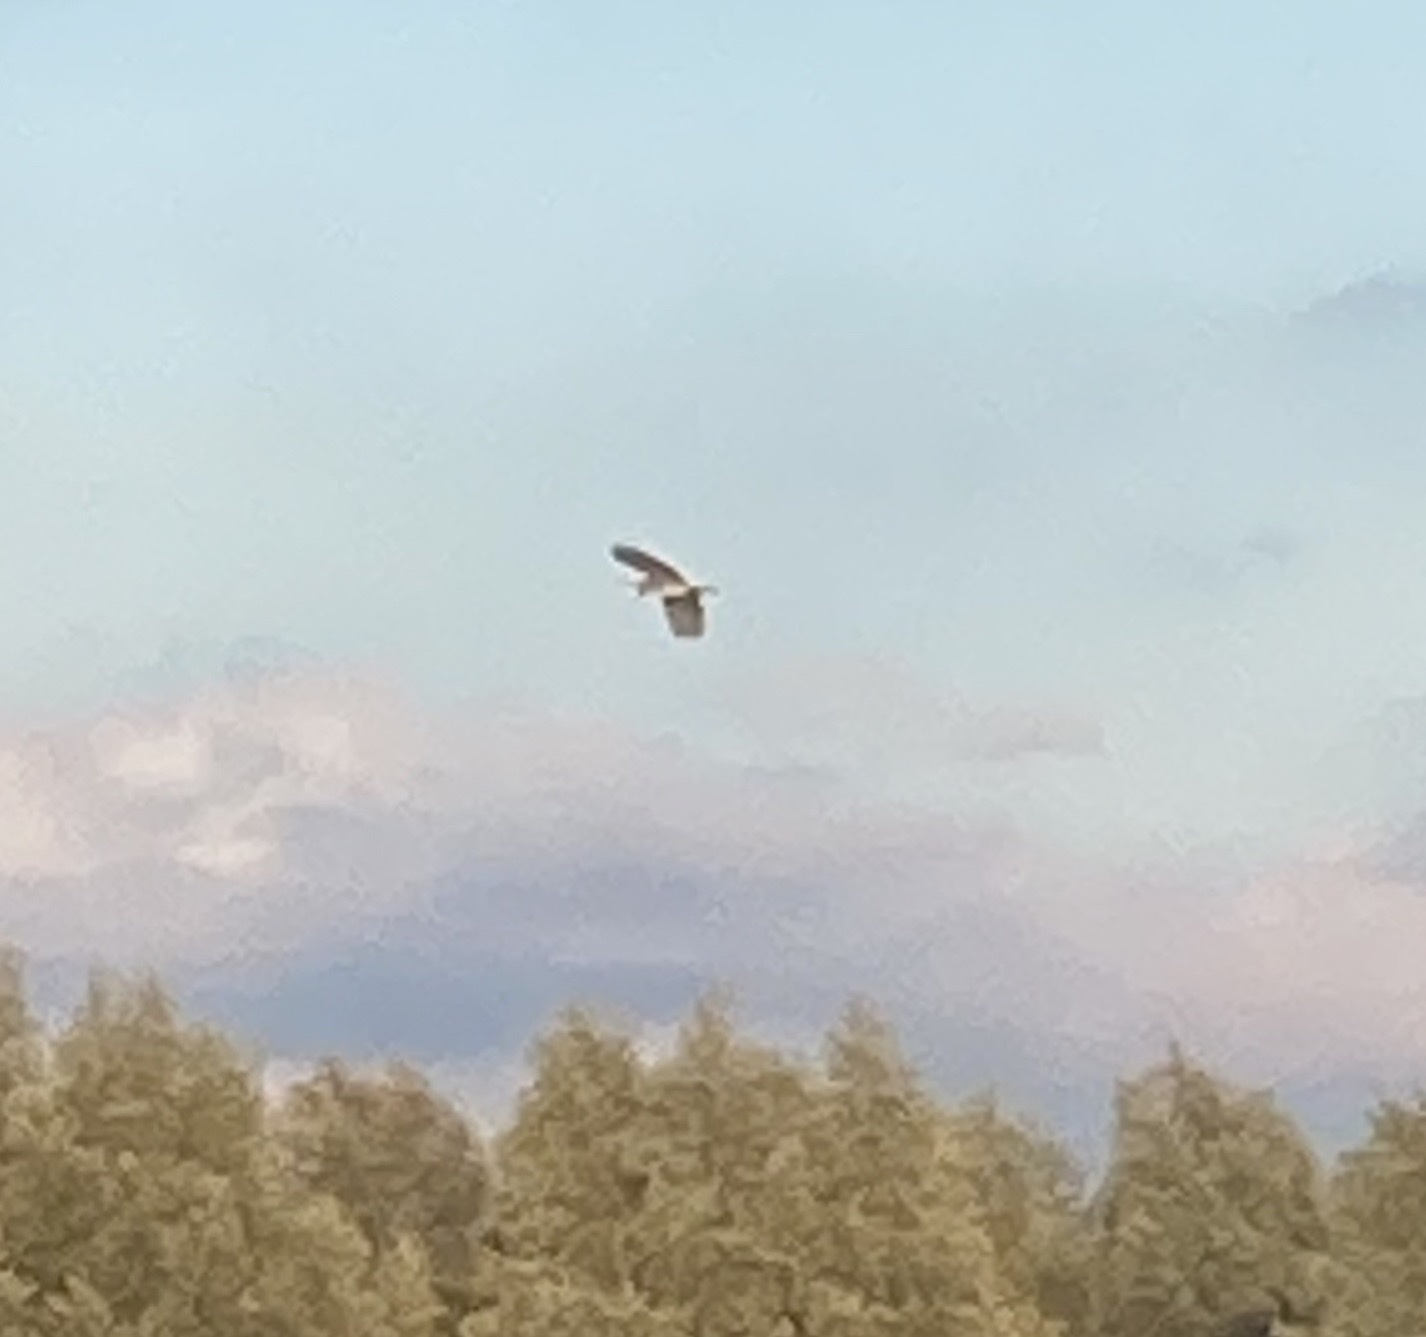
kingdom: Animalia
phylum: Chordata
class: Aves
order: Pelecaniformes
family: Ardeidae
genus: Ardea
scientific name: Ardea cinerea
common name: Grey heron
